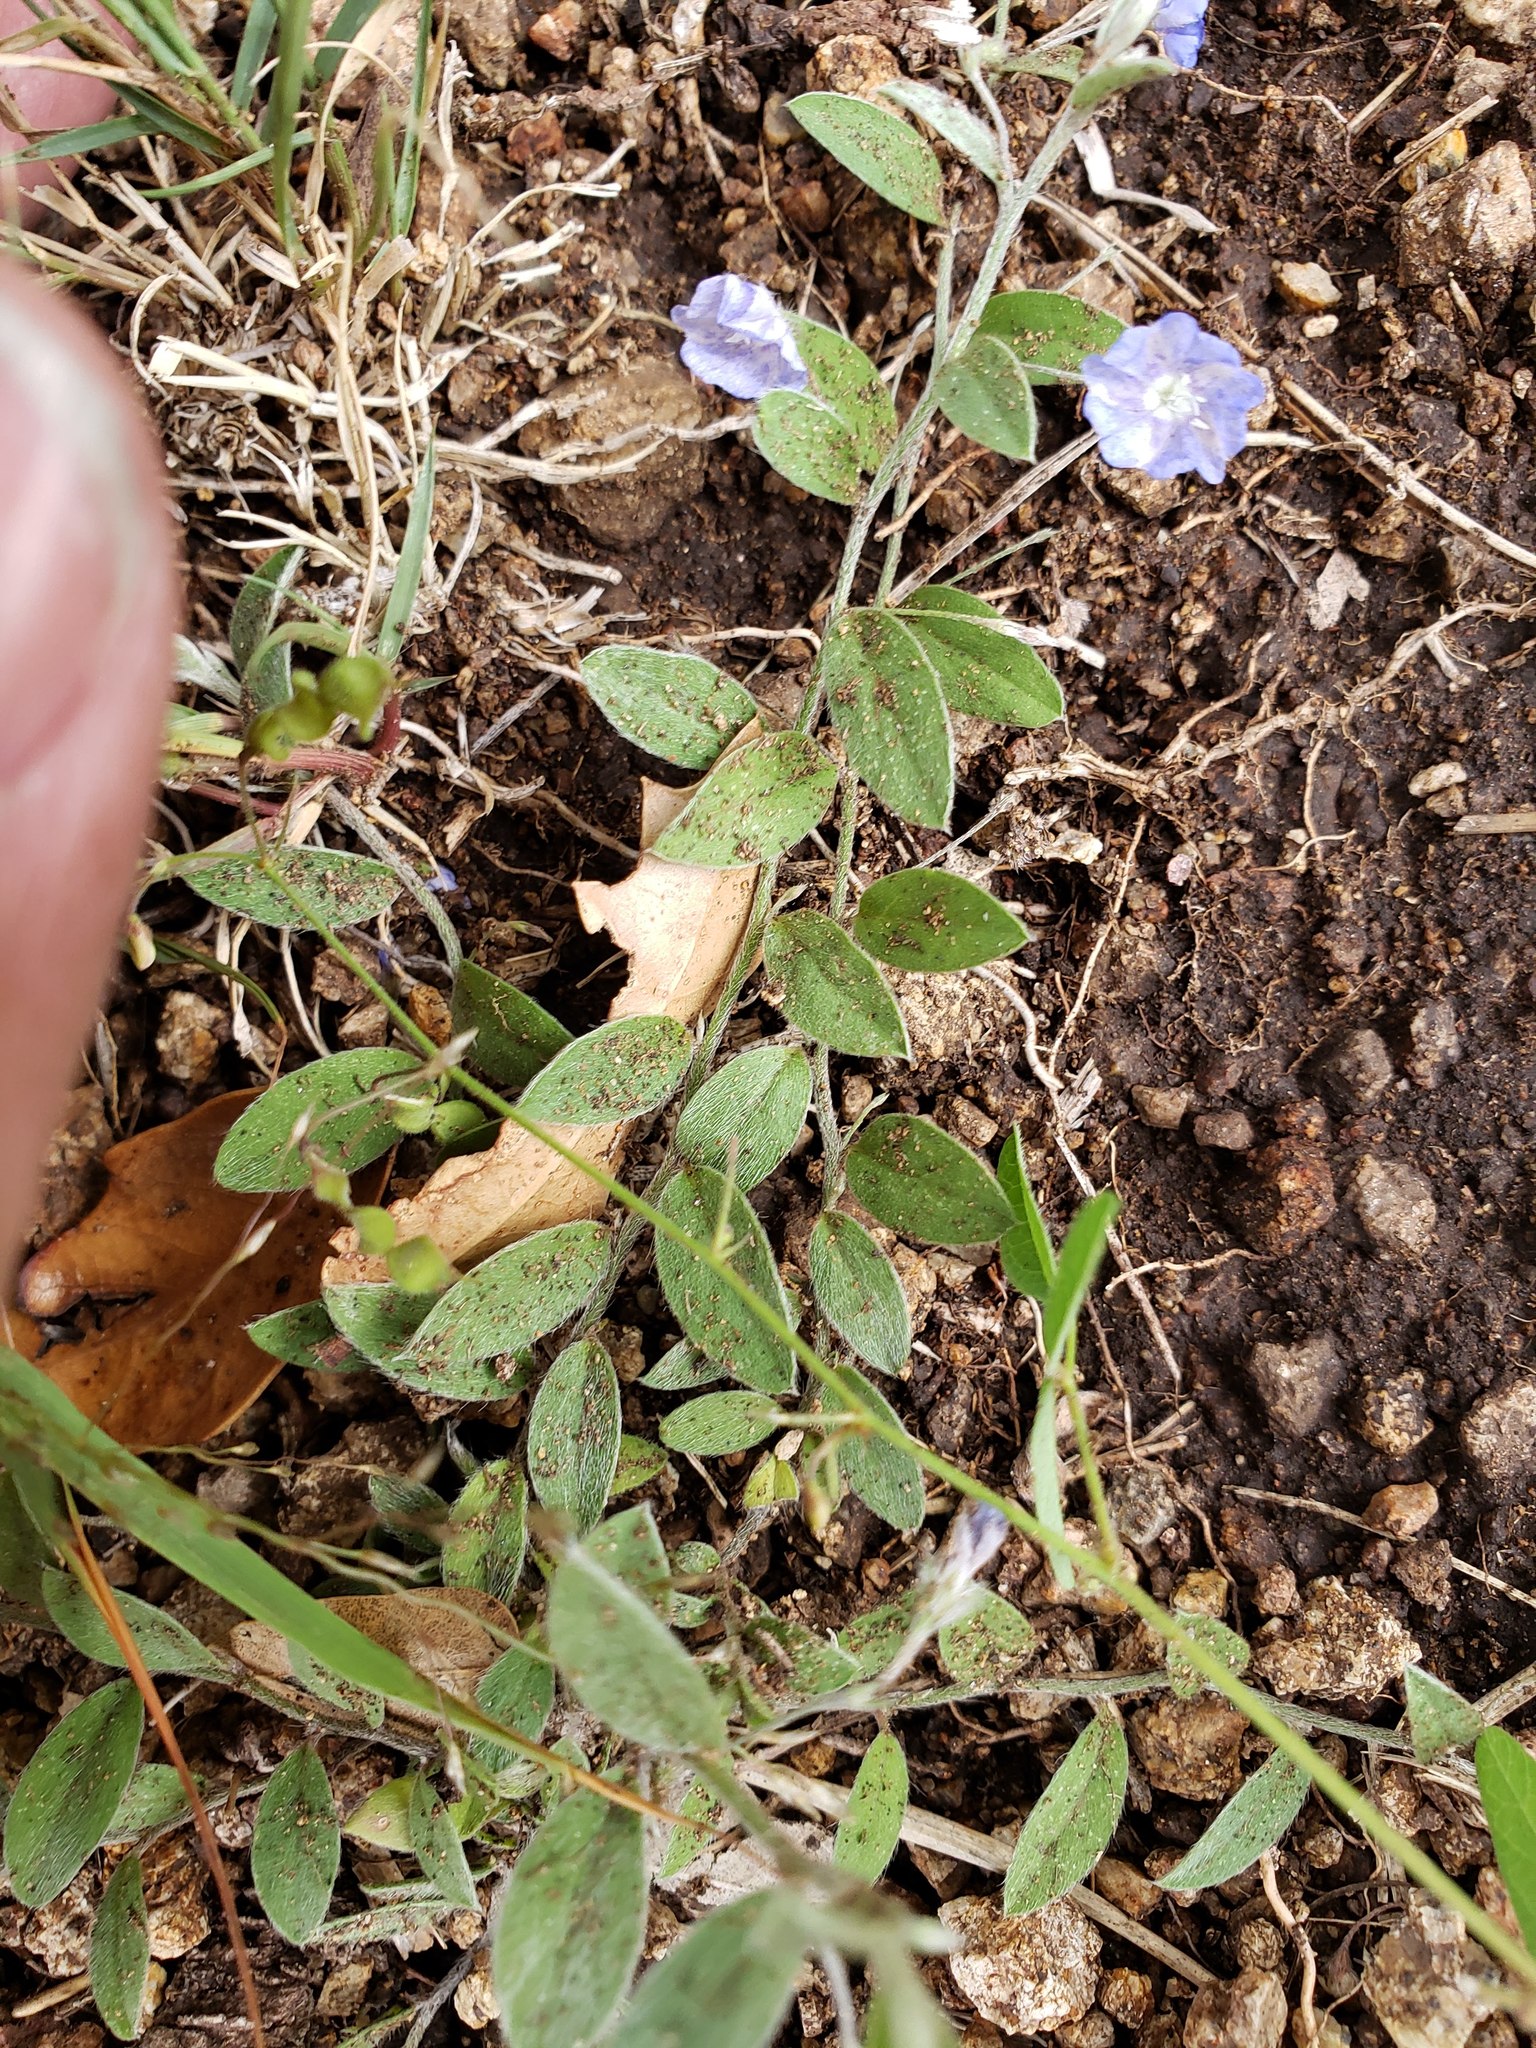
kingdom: Plantae
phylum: Tracheophyta
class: Magnoliopsida
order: Solanales
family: Convolvulaceae
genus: Evolvulus
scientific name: Evolvulus alsinoides
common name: Slender dwarf morning-glory
